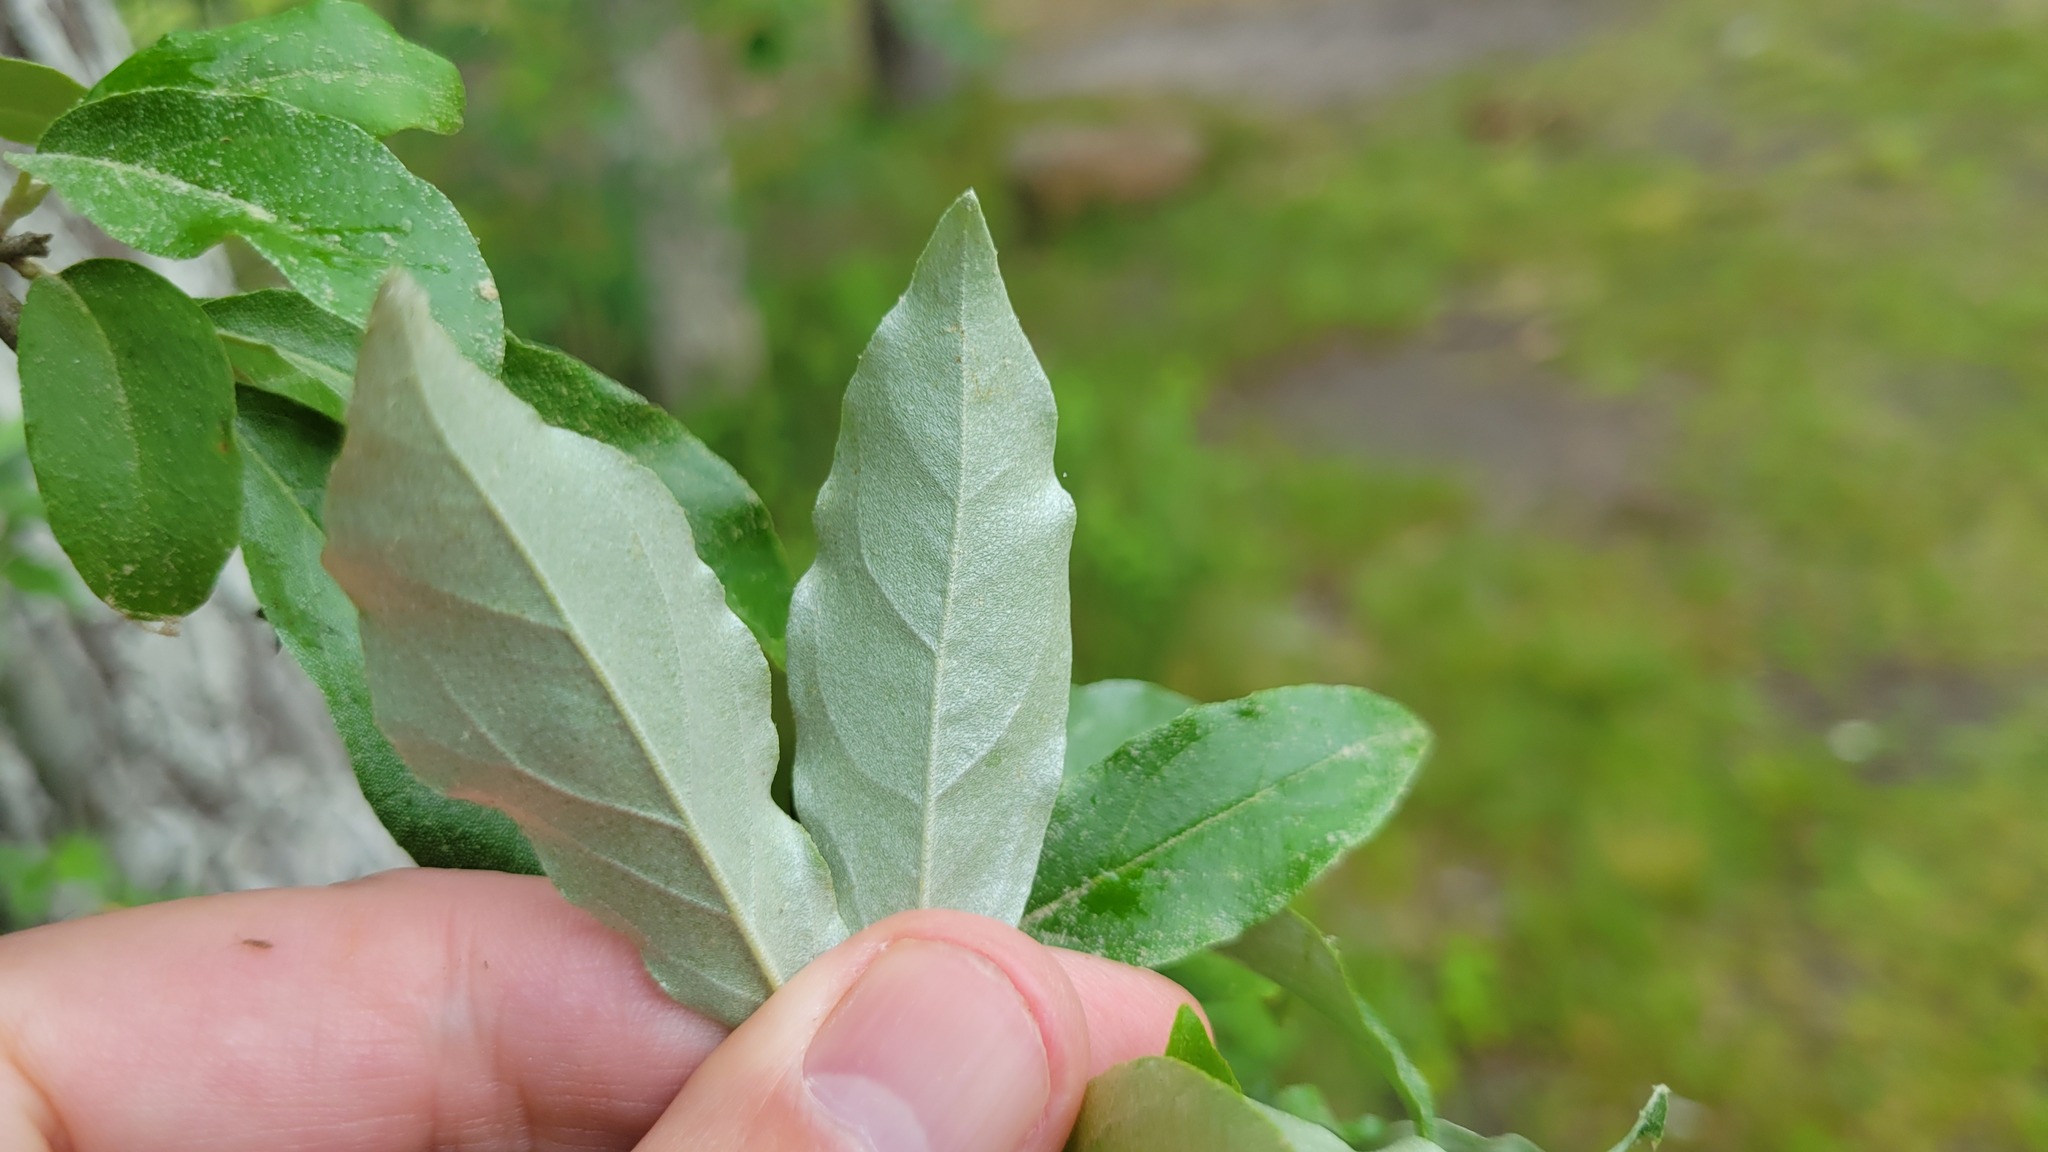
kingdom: Plantae
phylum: Tracheophyta
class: Magnoliopsida
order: Rosales
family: Elaeagnaceae
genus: Elaeagnus
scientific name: Elaeagnus umbellata
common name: Autumn olive
